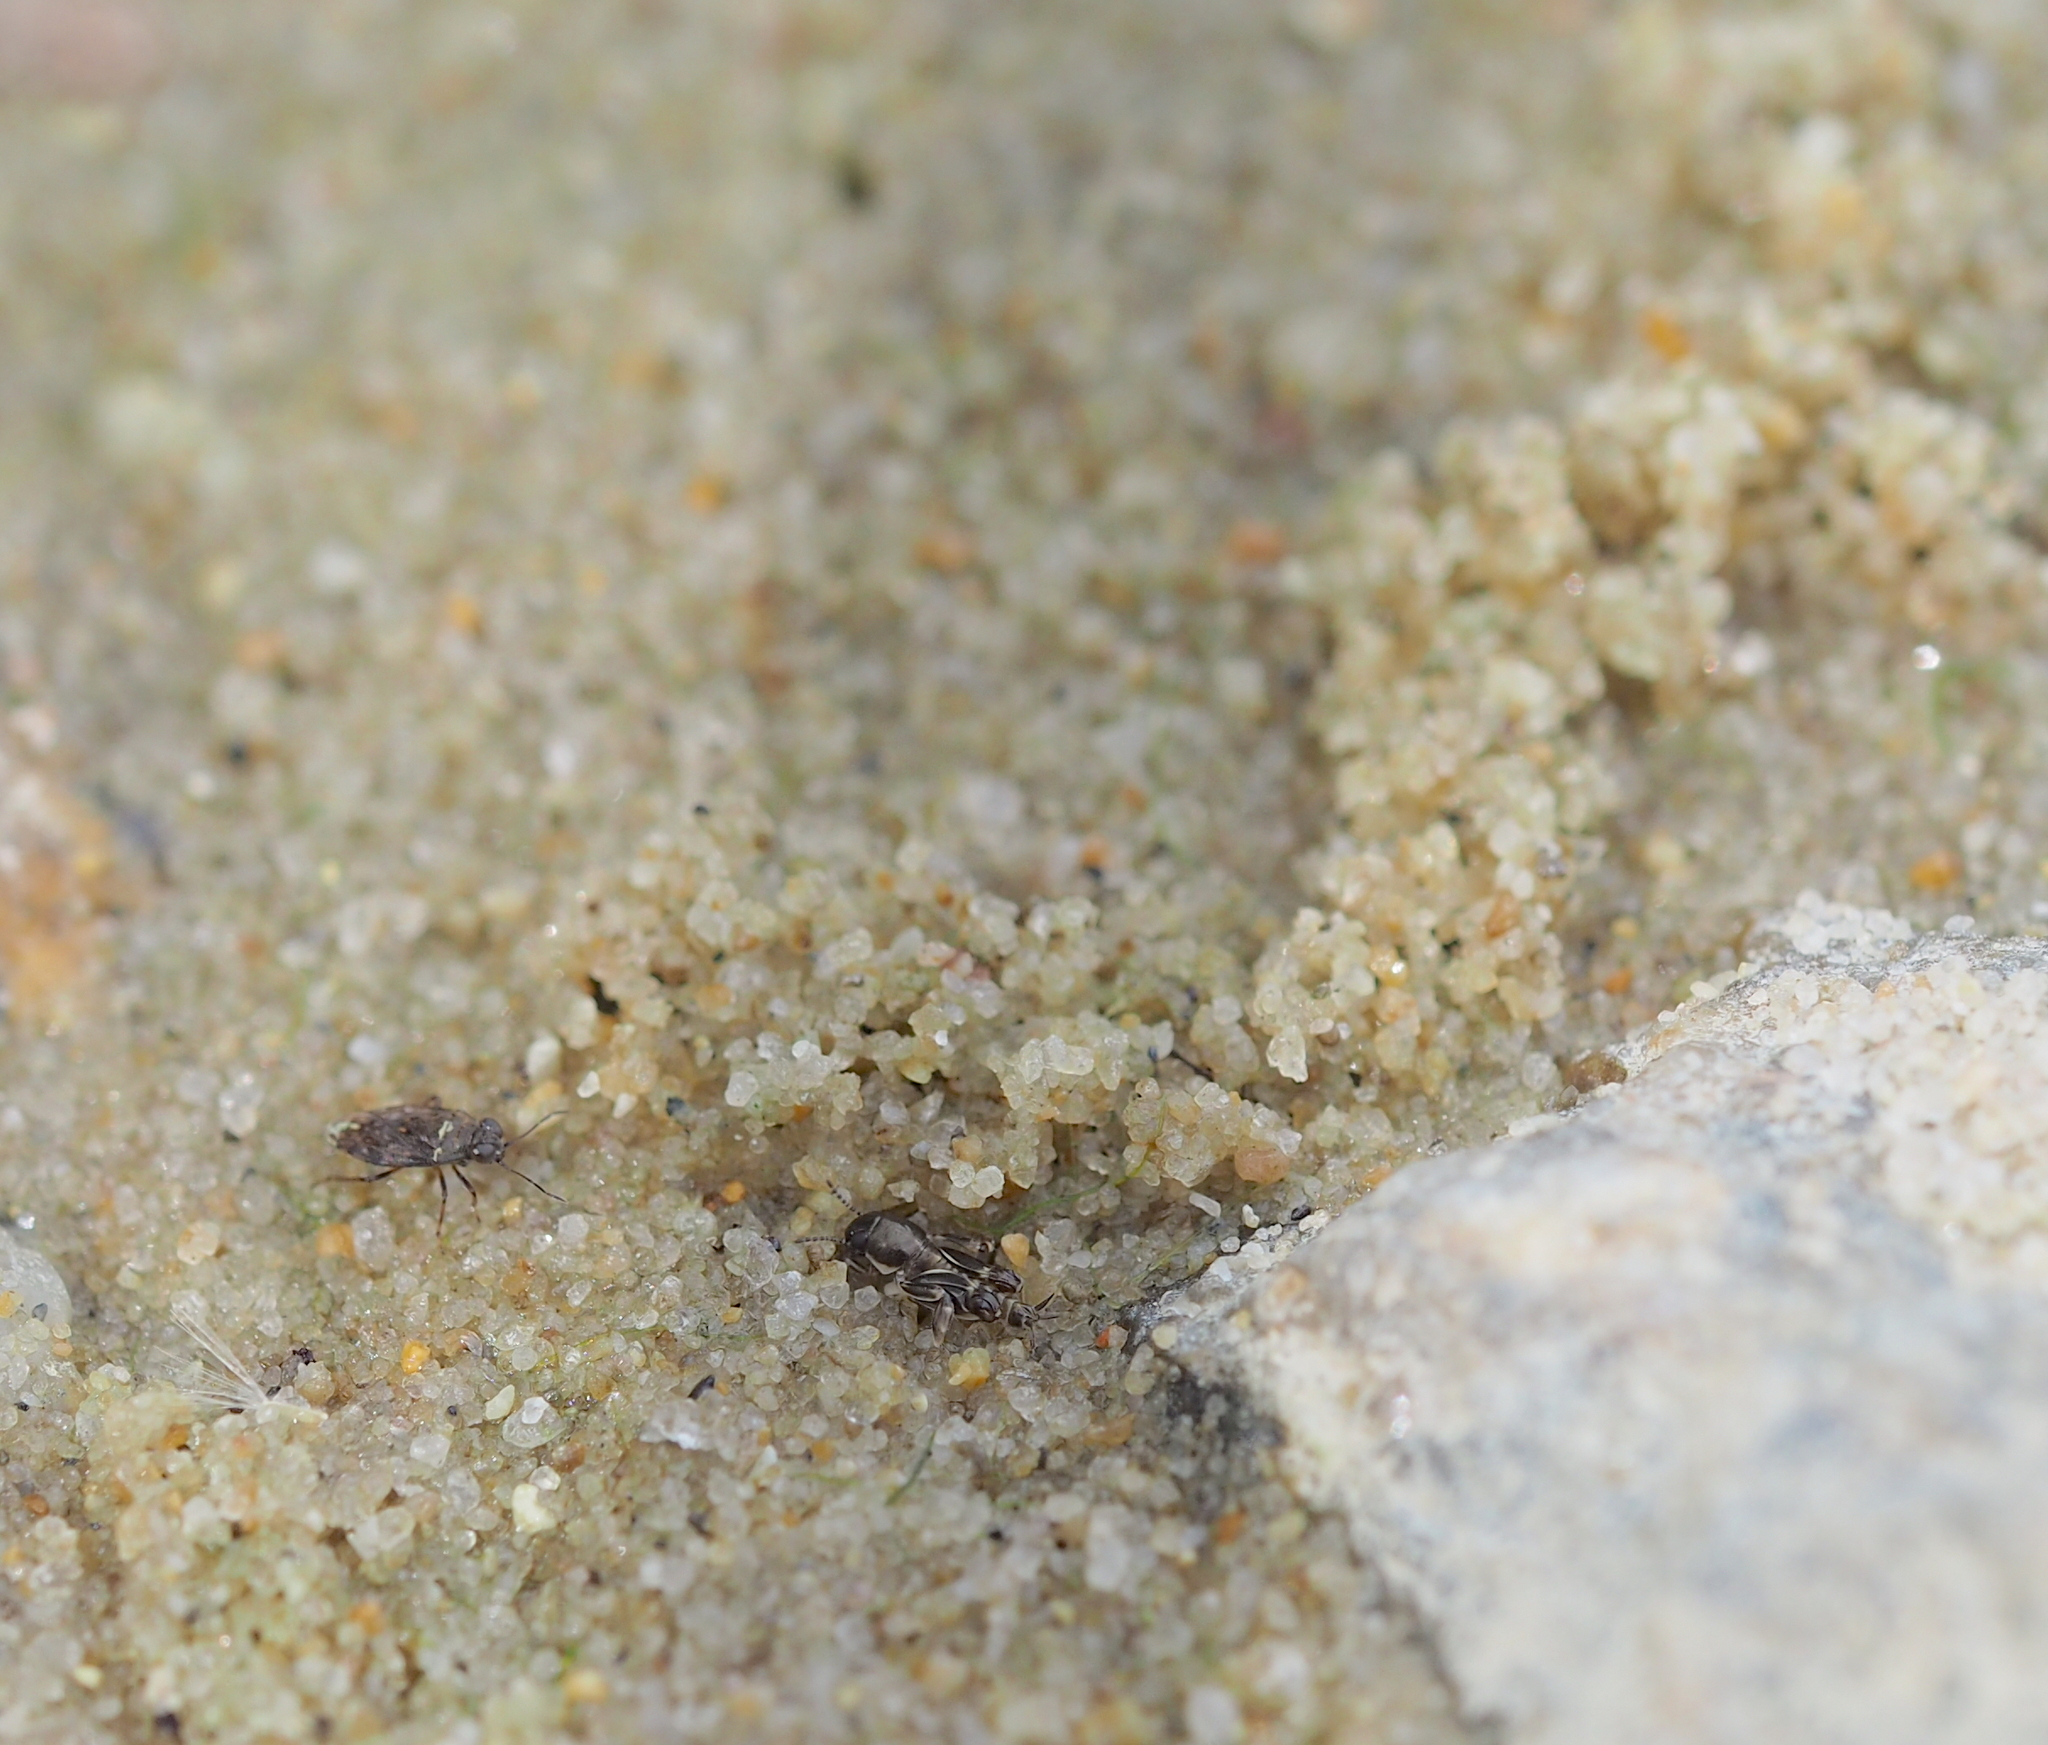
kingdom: Animalia
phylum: Arthropoda
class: Insecta
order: Orthoptera
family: Tridactylidae
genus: Xya
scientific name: Xya variegata
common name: Le tridactyle panaché
